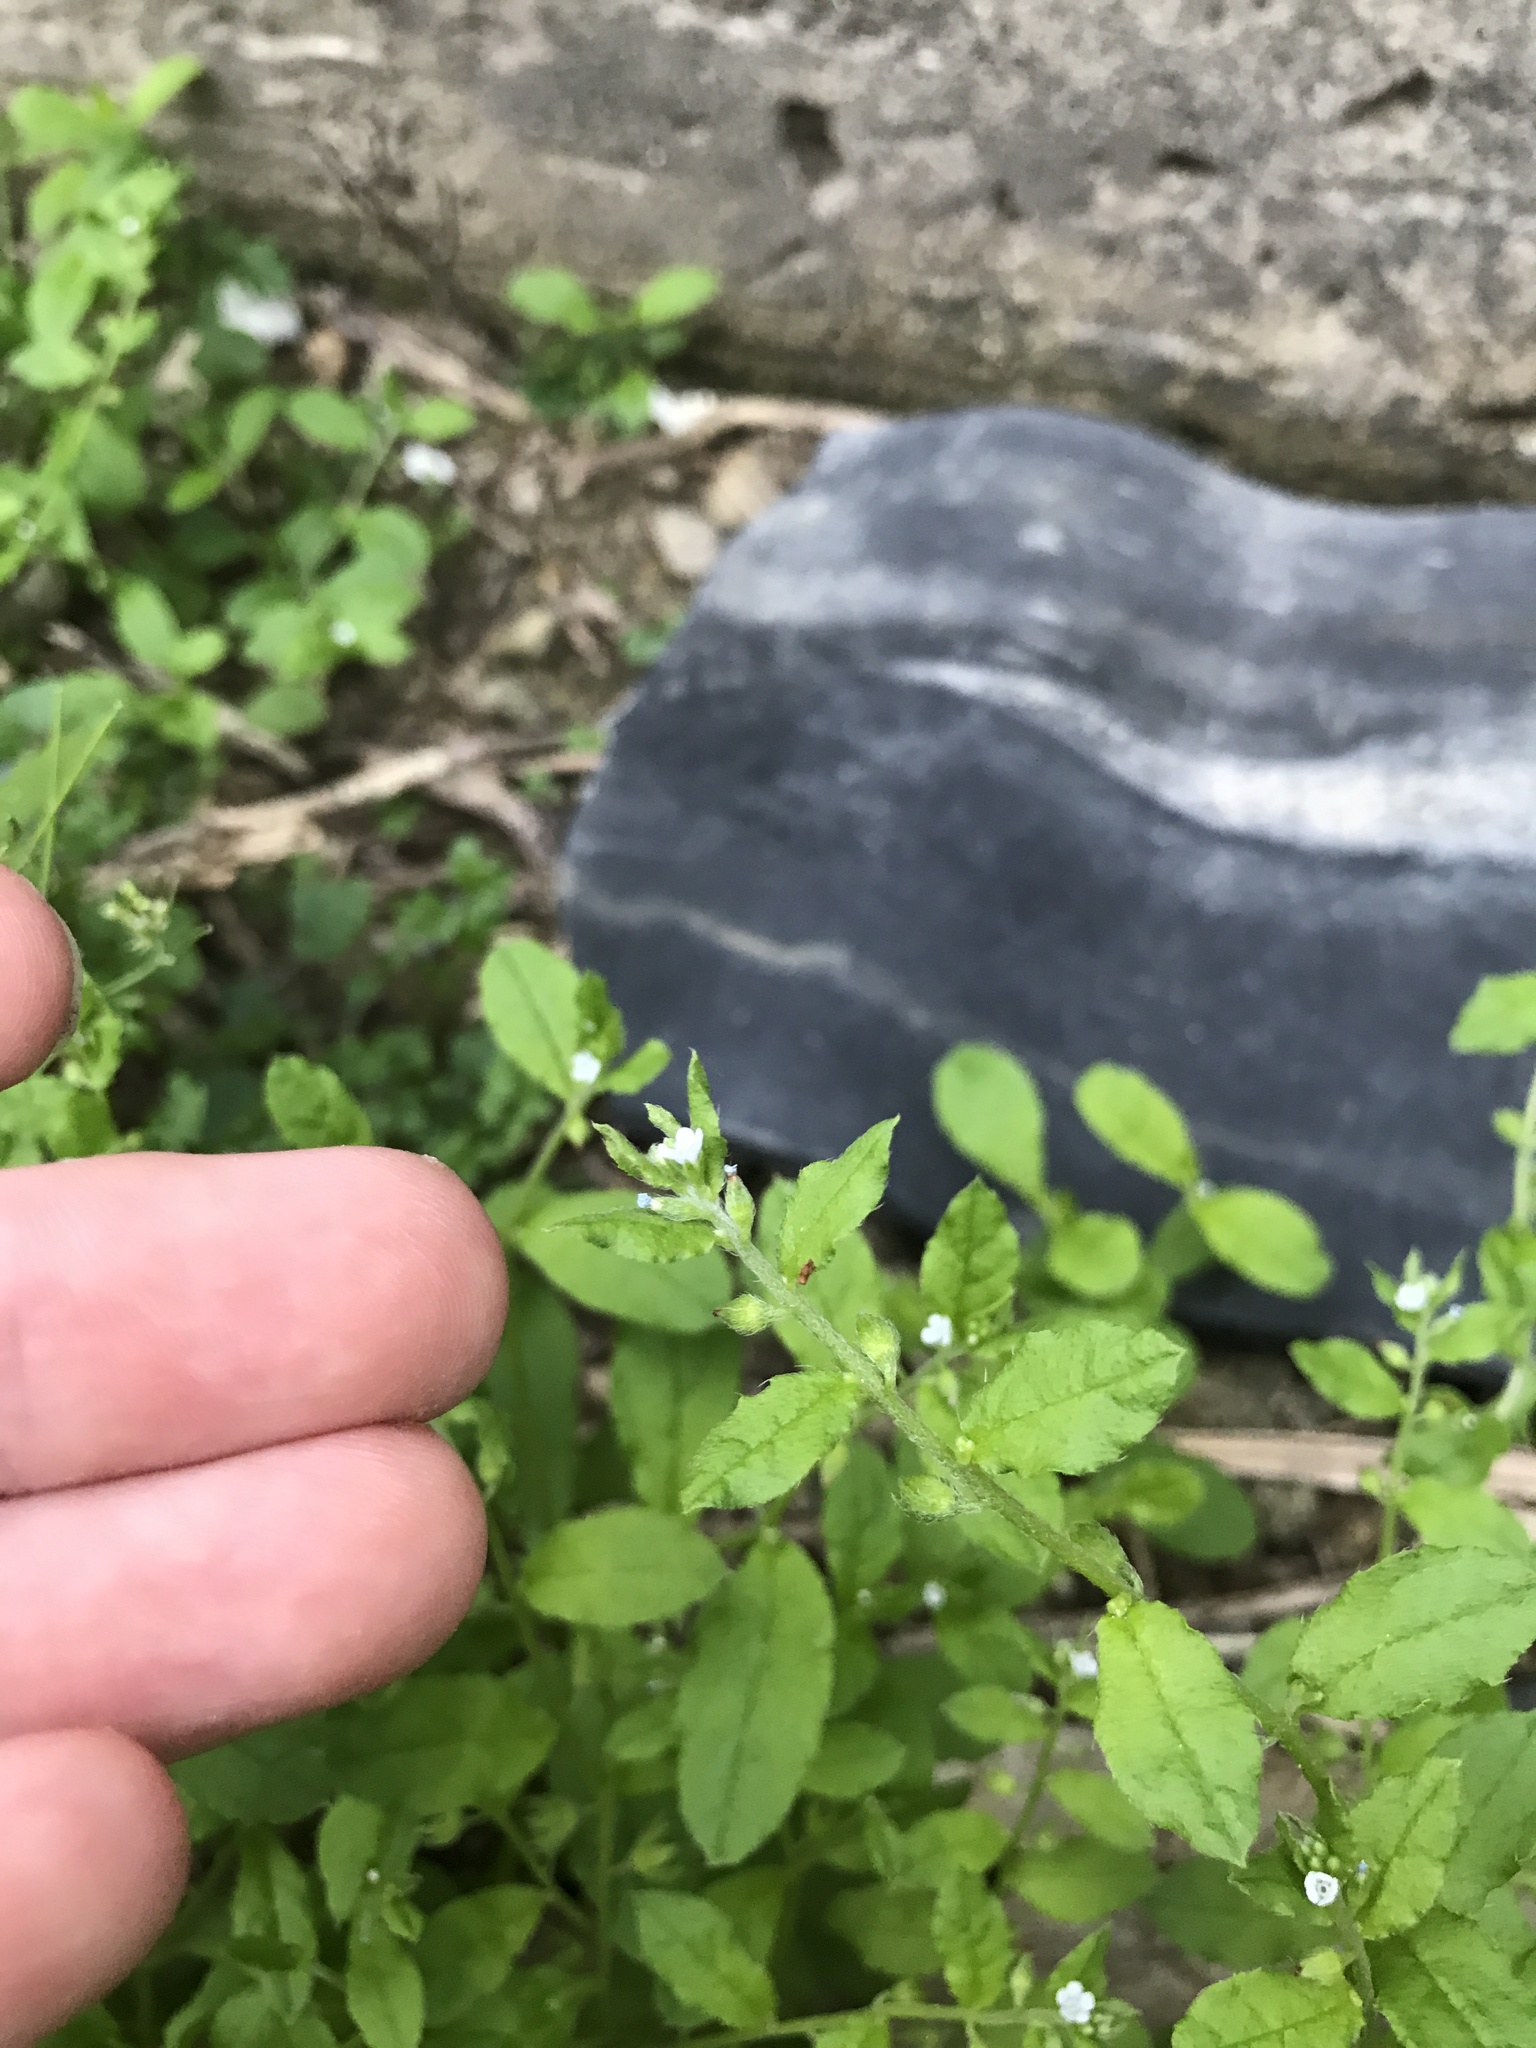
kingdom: Plantae
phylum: Tracheophyta
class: Magnoliopsida
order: Boraginales
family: Boraginaceae
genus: Bothriospermum
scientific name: Bothriospermum zeylanicum
